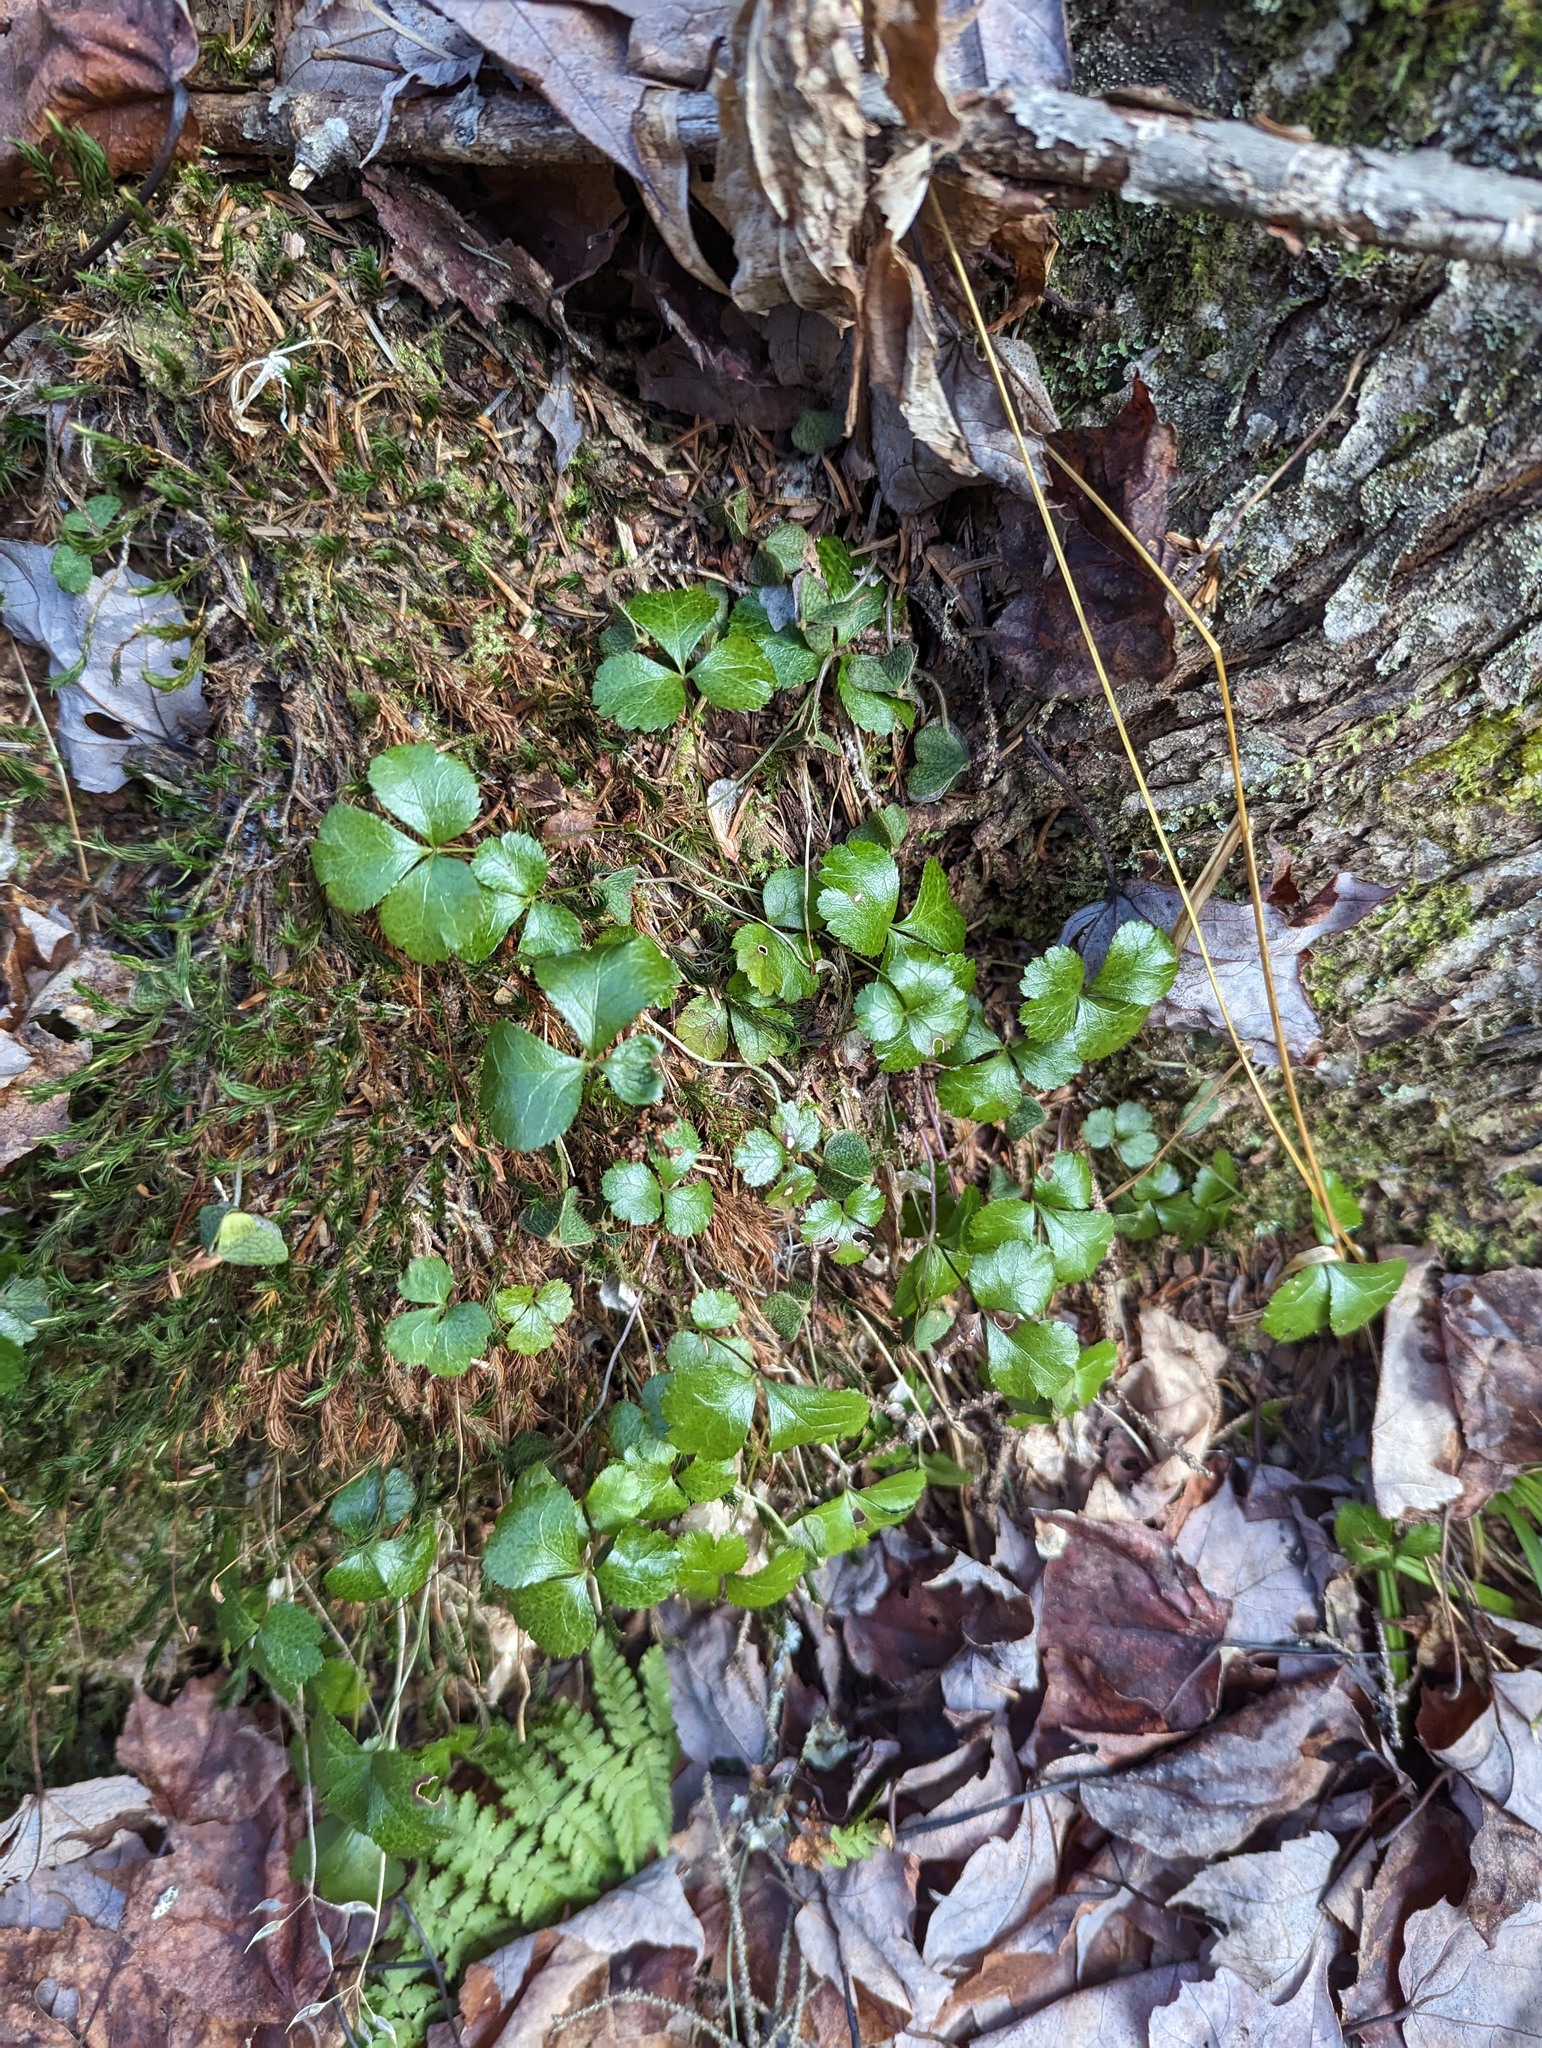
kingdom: Plantae
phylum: Tracheophyta
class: Magnoliopsida
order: Ranunculales
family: Ranunculaceae
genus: Coptis
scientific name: Coptis trifolia
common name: Canker-root
